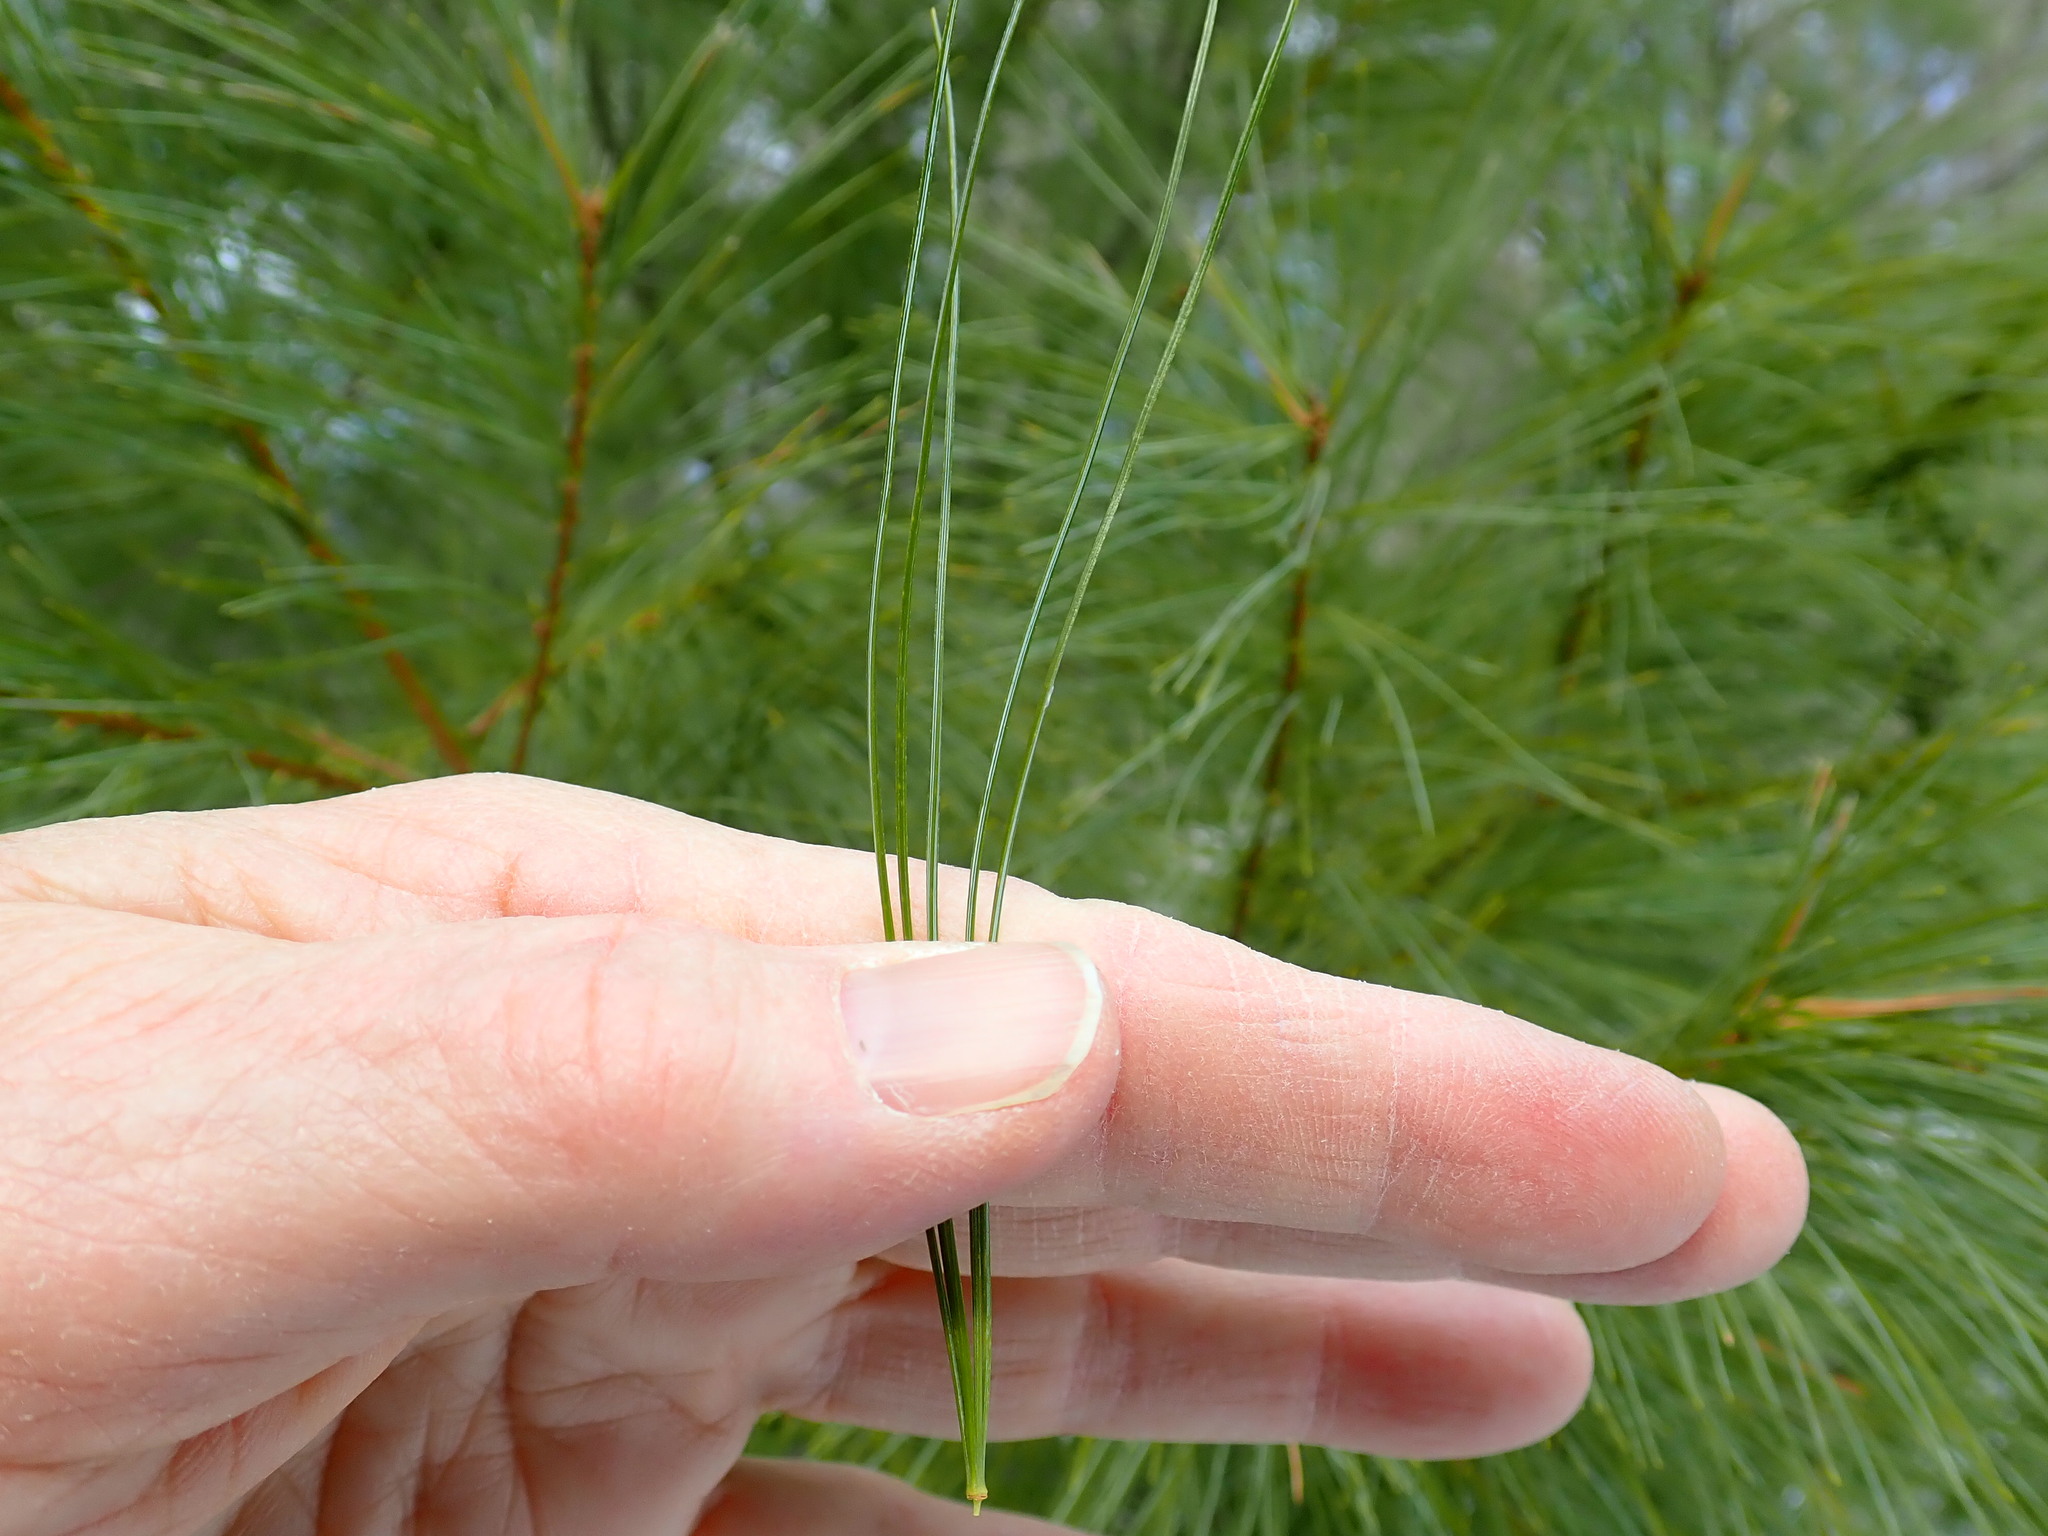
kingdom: Plantae
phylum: Tracheophyta
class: Pinopsida
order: Pinales
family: Pinaceae
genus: Pinus
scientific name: Pinus strobus
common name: Weymouth pine
